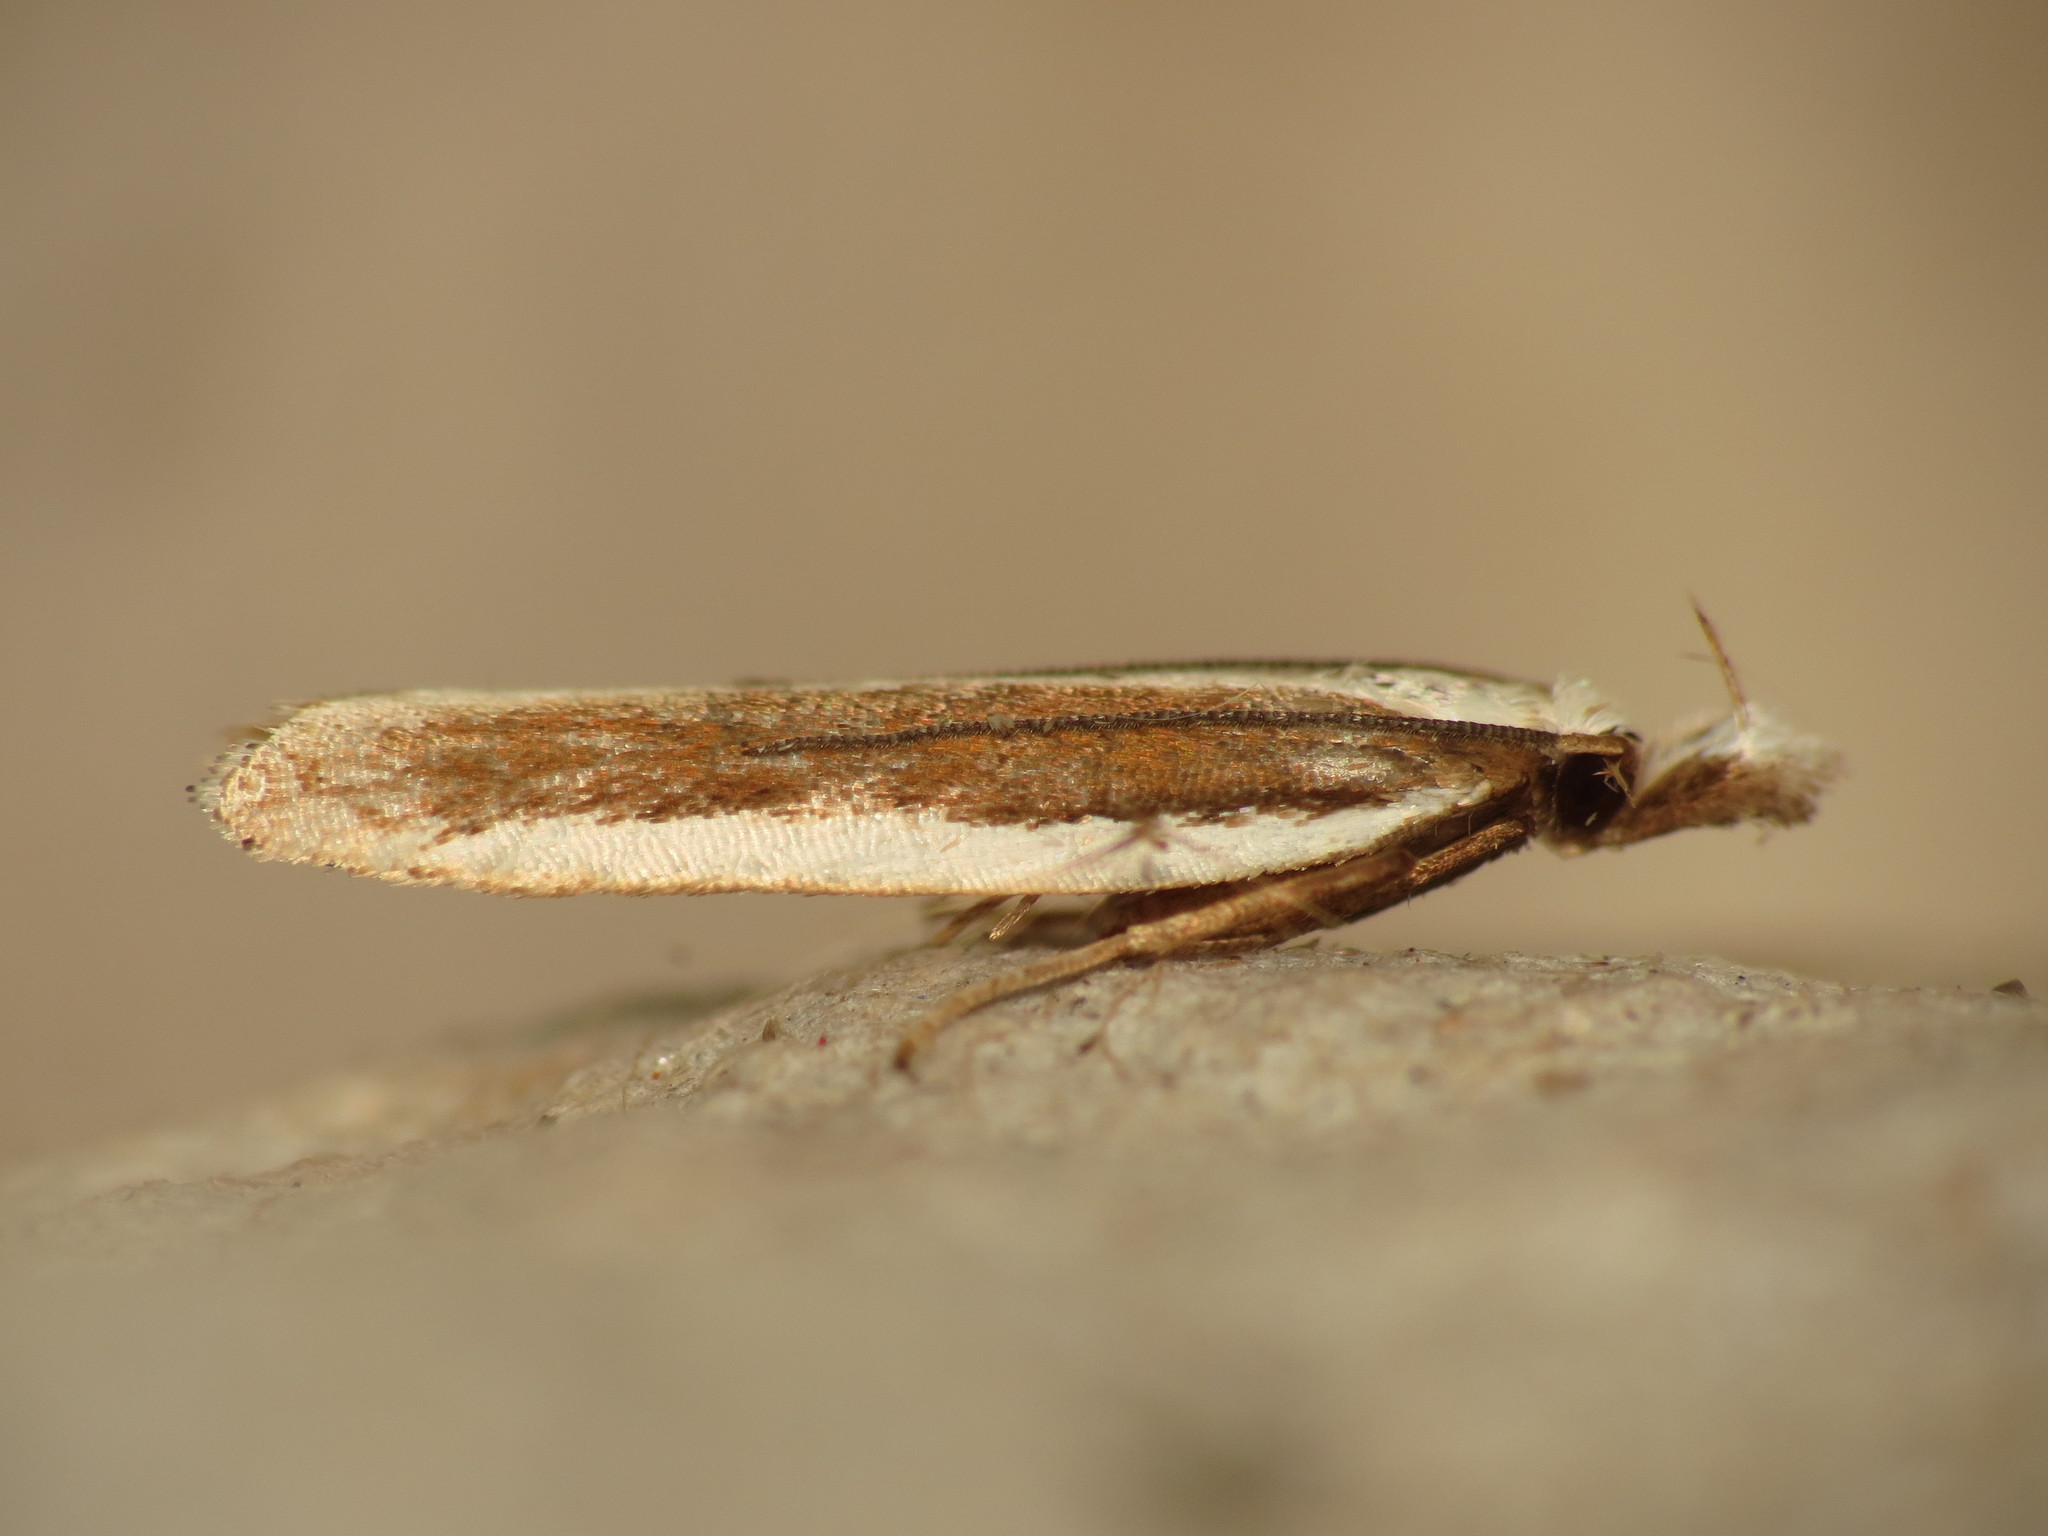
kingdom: Animalia
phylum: Arthropoda
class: Insecta
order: Lepidoptera
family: Gelechiidae
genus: Dichomeris
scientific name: Dichomeris marginella
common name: Juniper webworm
